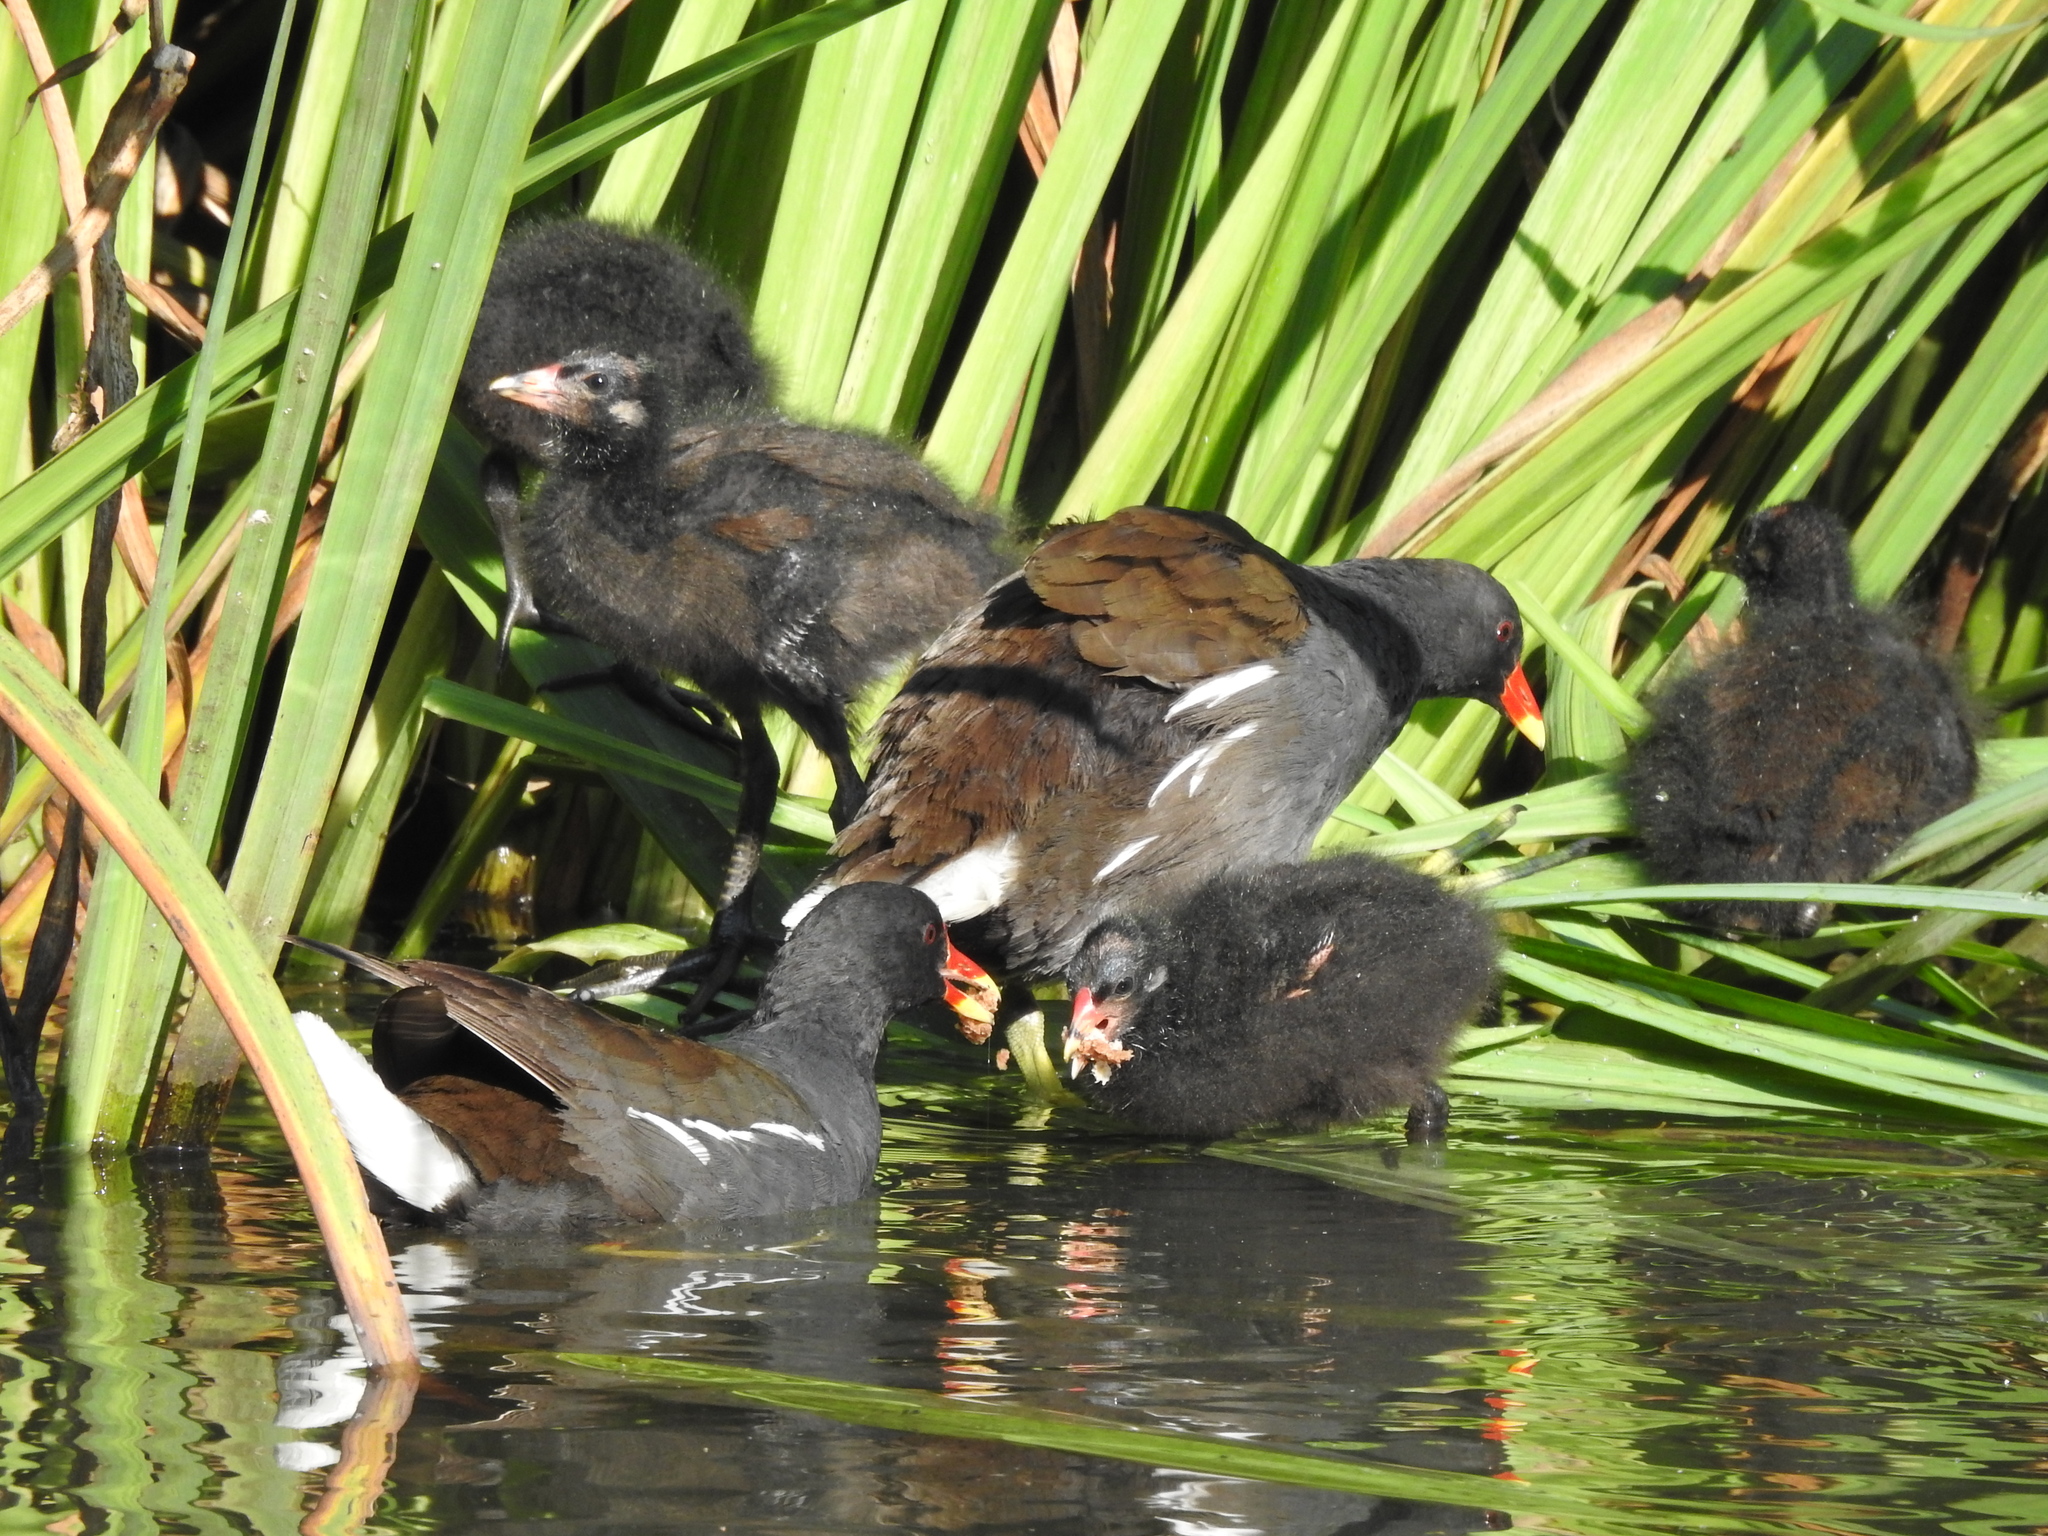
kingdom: Animalia
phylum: Chordata
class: Aves
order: Gruiformes
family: Rallidae
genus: Gallinula
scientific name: Gallinula chloropus
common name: Common moorhen
